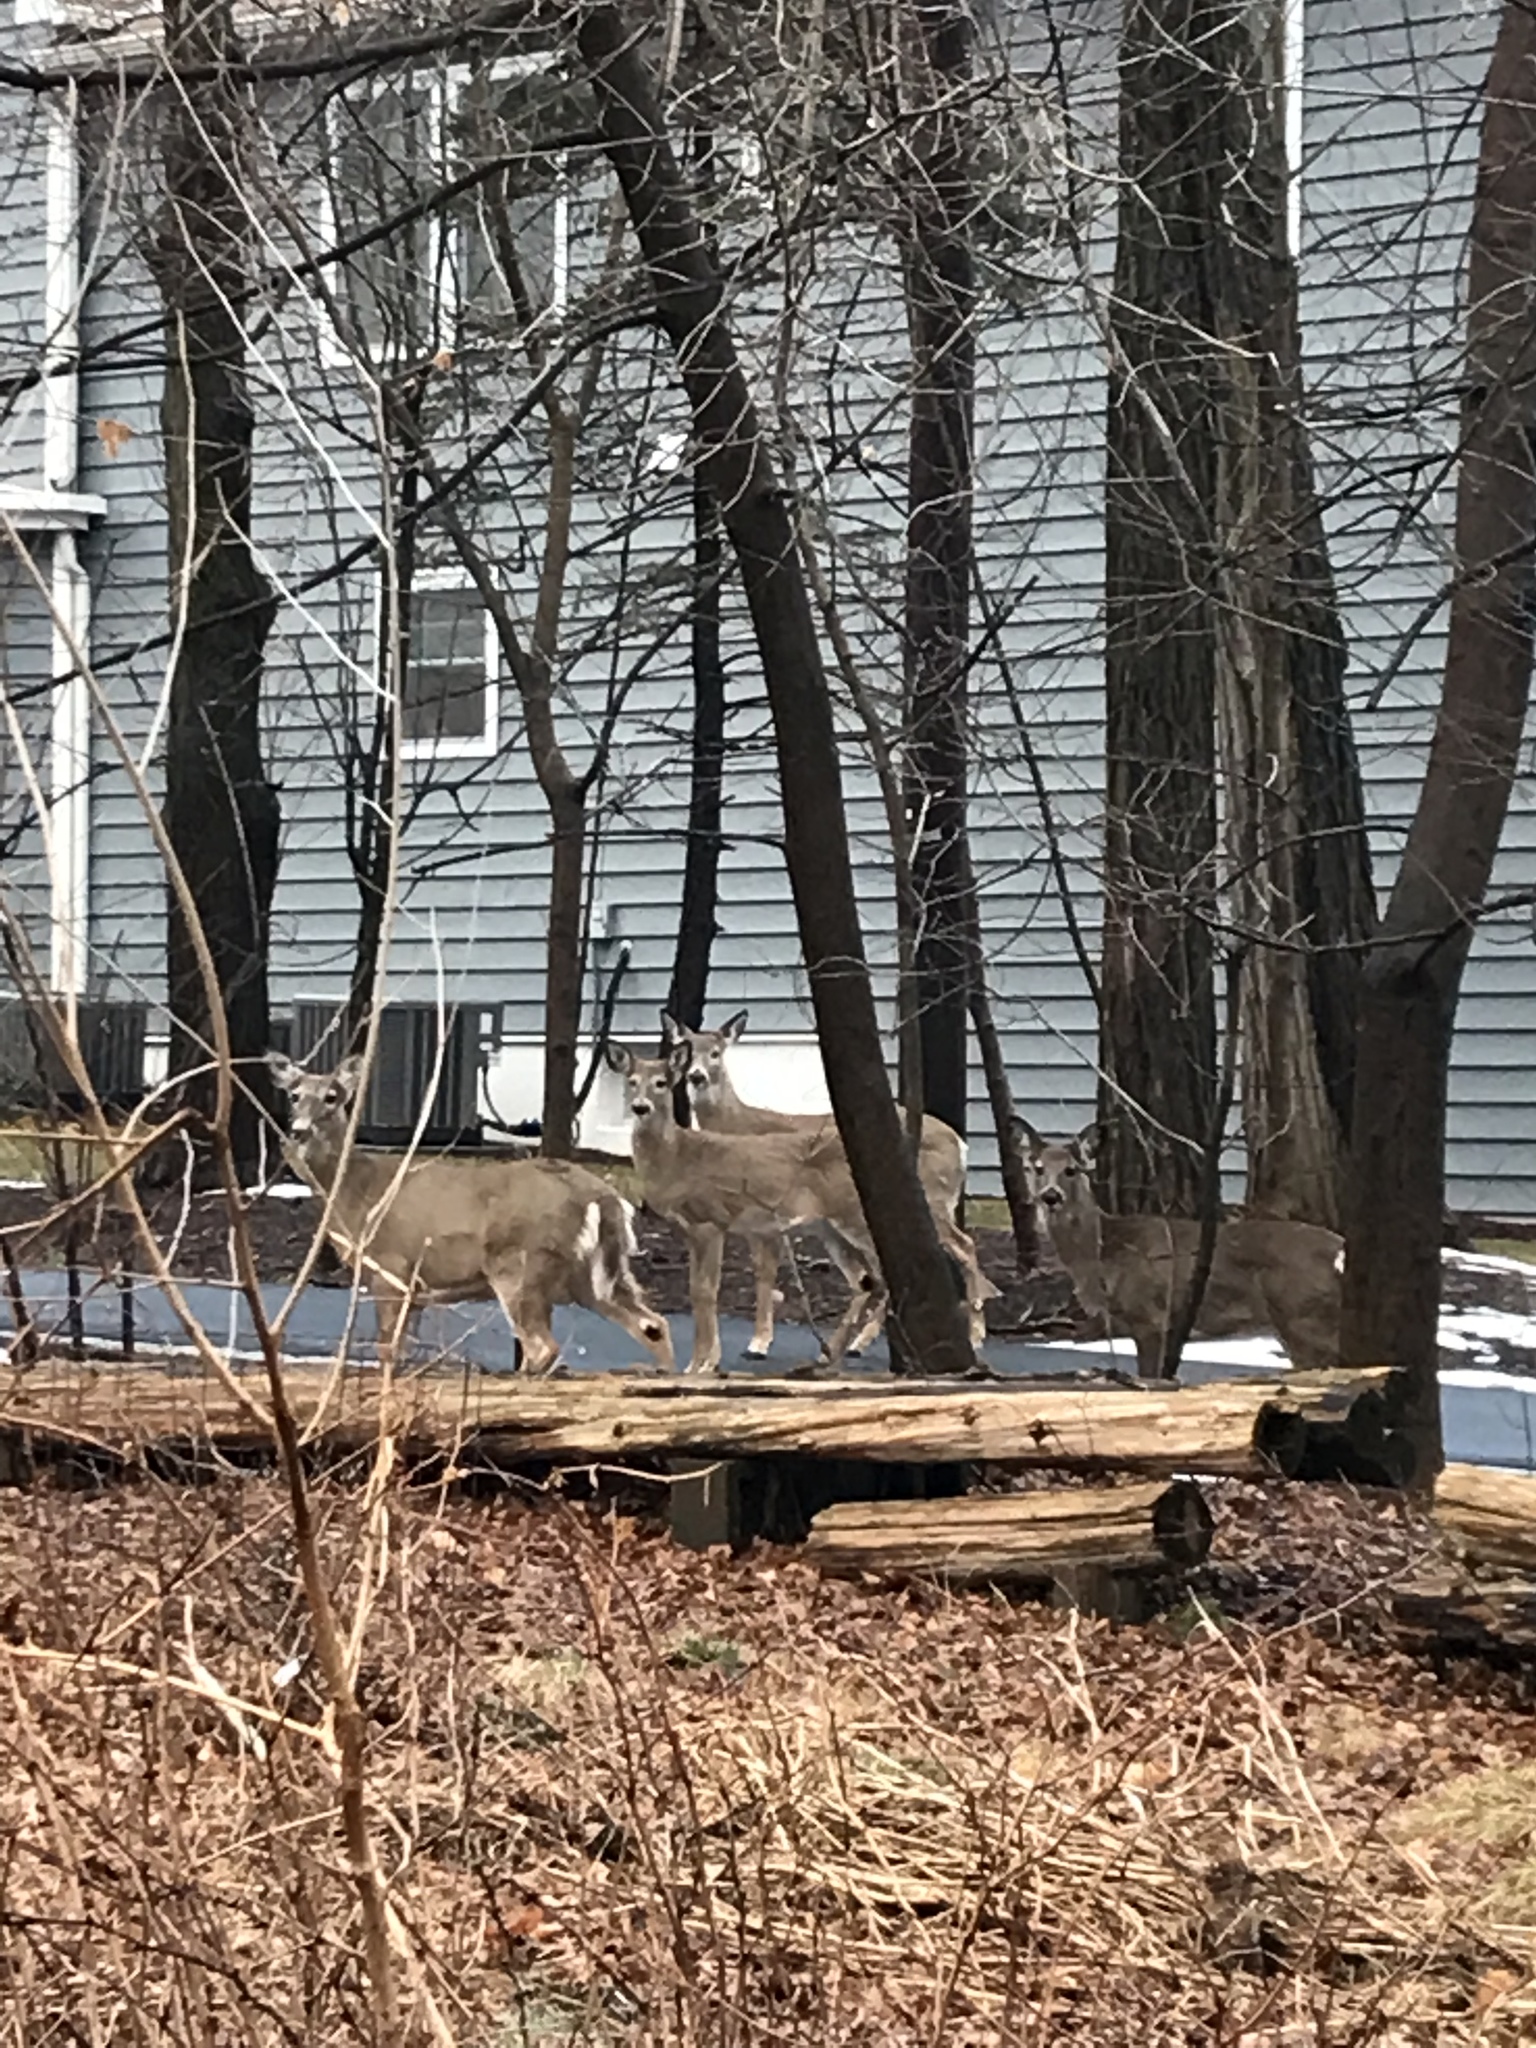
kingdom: Animalia
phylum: Chordata
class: Mammalia
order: Artiodactyla
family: Cervidae
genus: Odocoileus
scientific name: Odocoileus virginianus
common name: White-tailed deer
